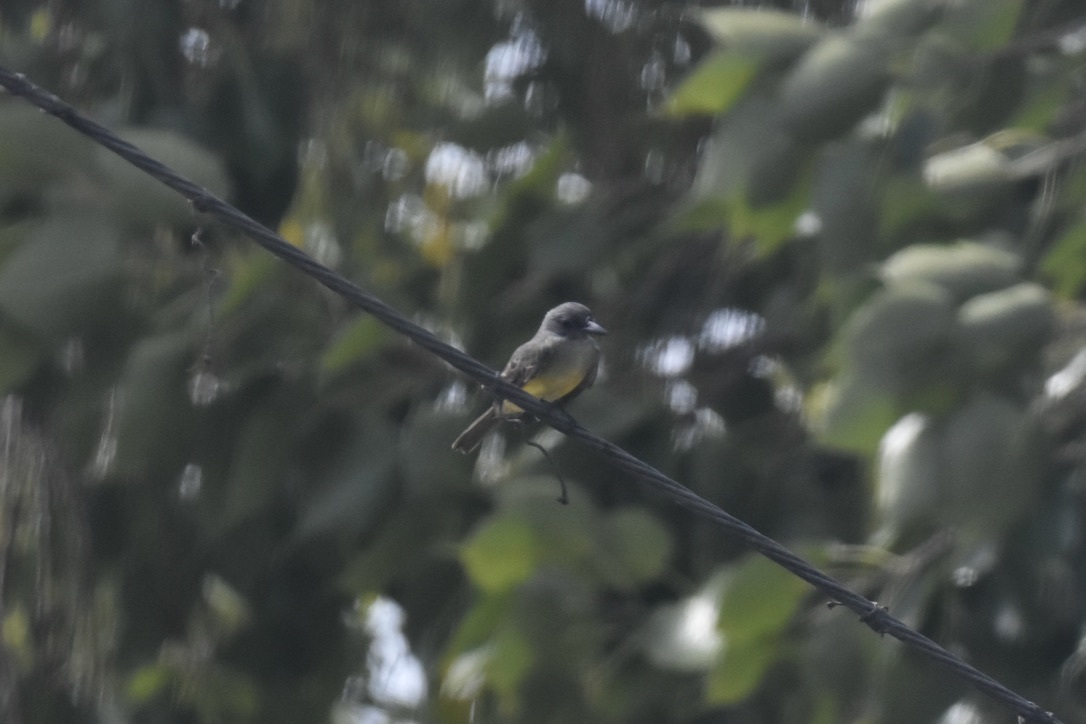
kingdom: Animalia
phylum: Chordata
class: Aves
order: Passeriformes
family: Tyrannidae
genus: Tyrannus
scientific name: Tyrannus melancholicus
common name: Tropical kingbird
